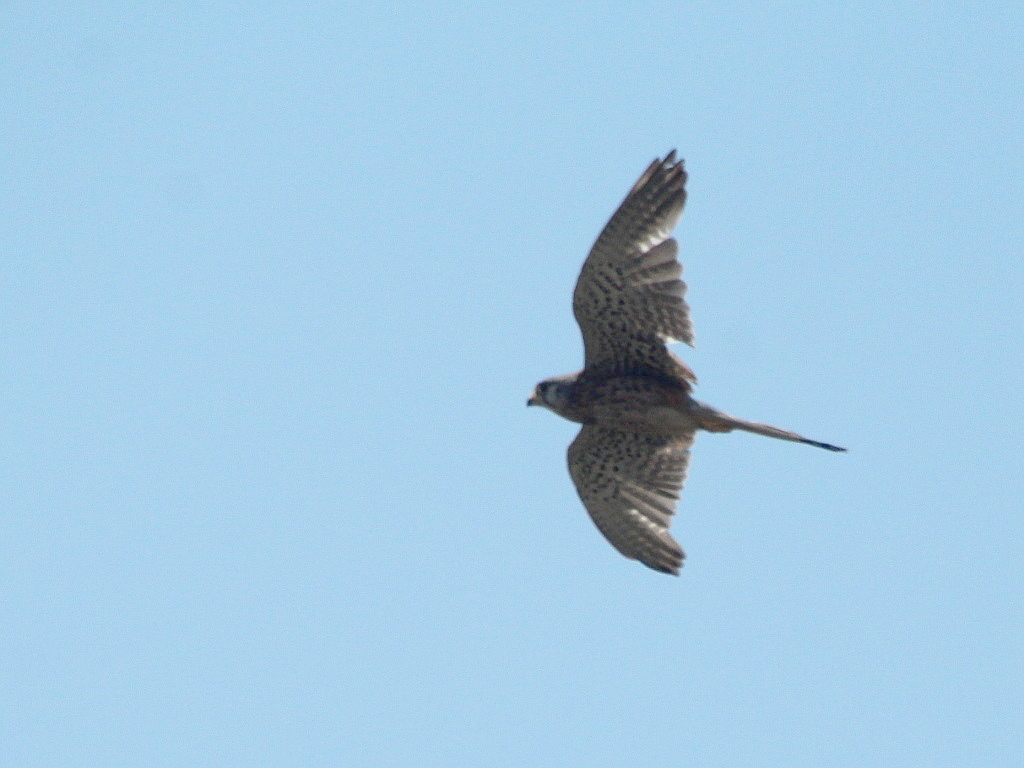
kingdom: Animalia
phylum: Chordata
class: Aves
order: Falconiformes
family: Falconidae
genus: Falco
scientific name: Falco tinnunculus
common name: Common kestrel
